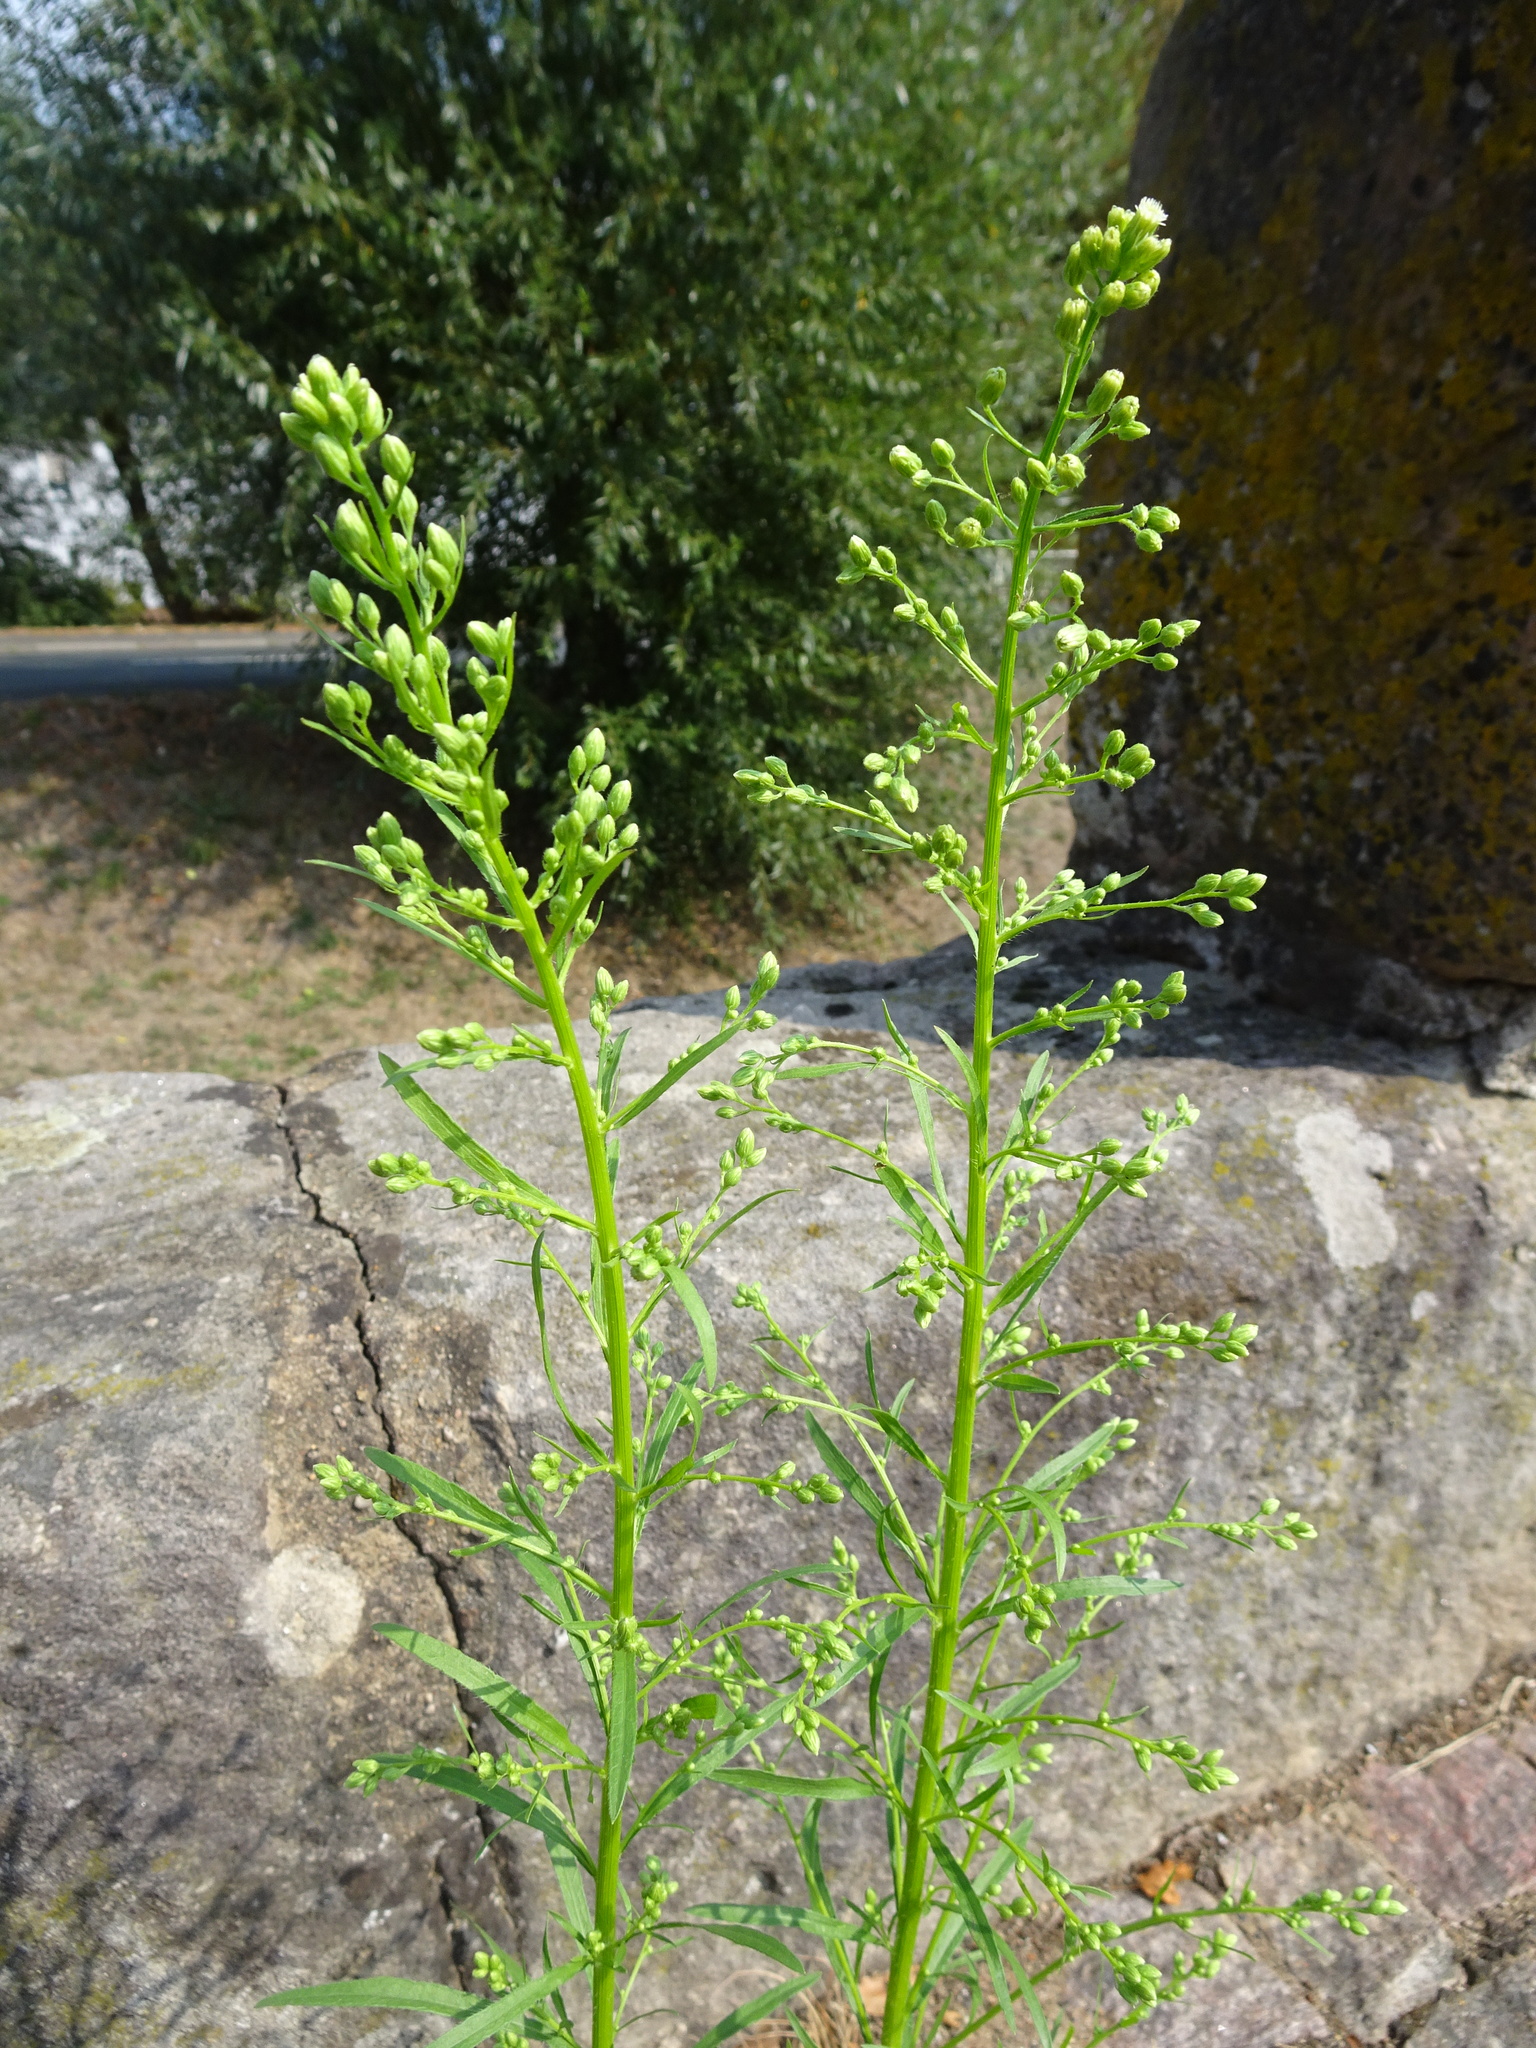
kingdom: Plantae
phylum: Tracheophyta
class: Magnoliopsida
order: Asterales
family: Asteraceae
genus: Erigeron
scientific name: Erigeron canadensis
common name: Canadian fleabane
